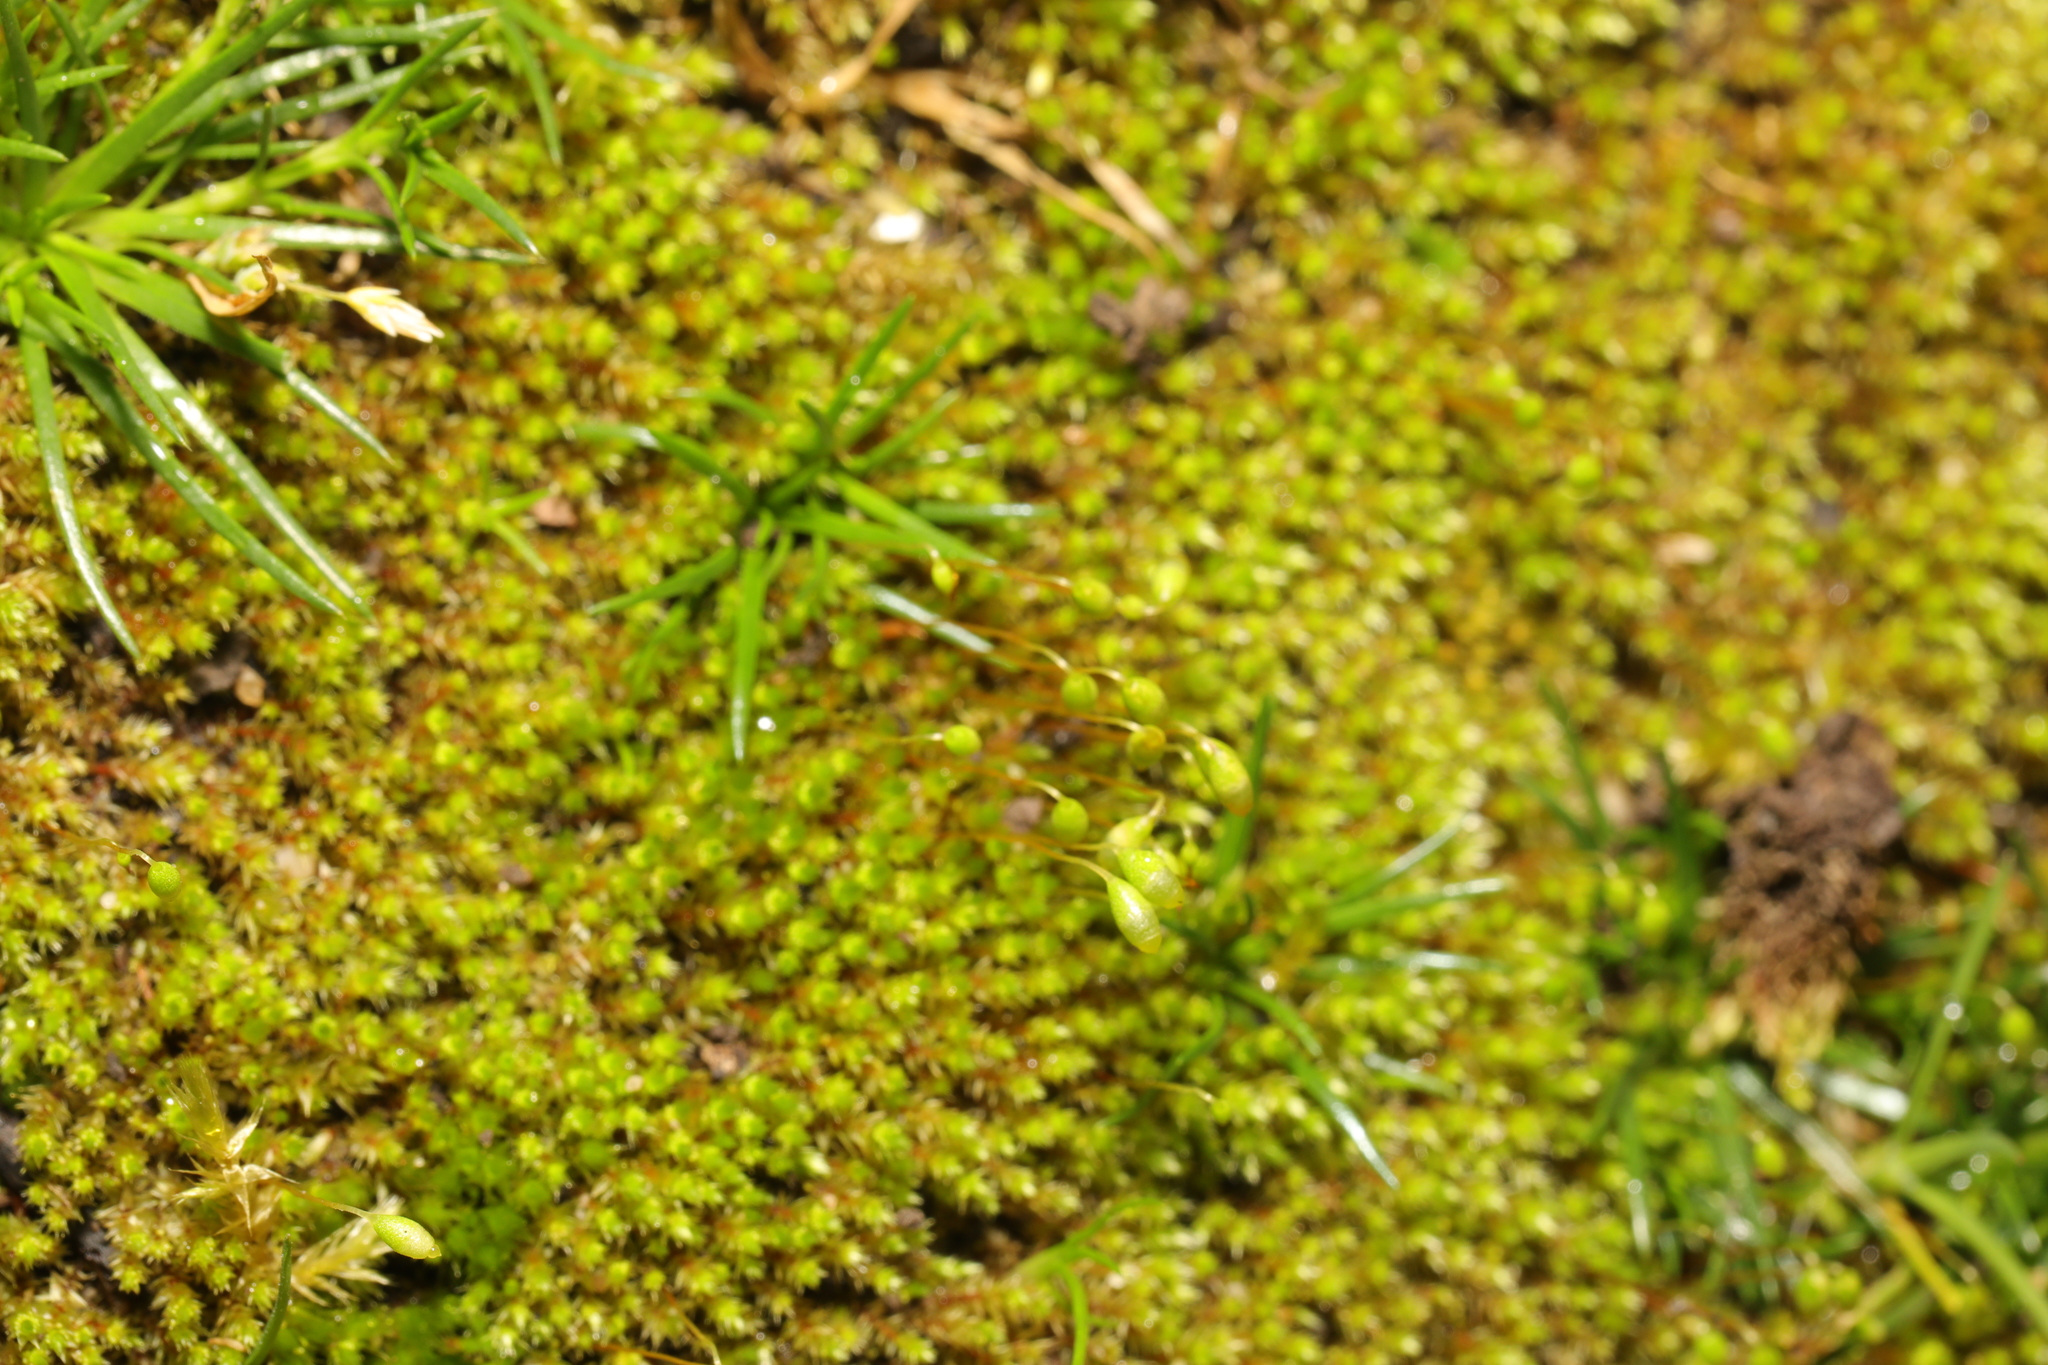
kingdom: Plantae
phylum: Bryophyta
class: Bryopsida
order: Funariales
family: Funariaceae
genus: Funaria
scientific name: Funaria hygrometrica
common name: Common cord moss
